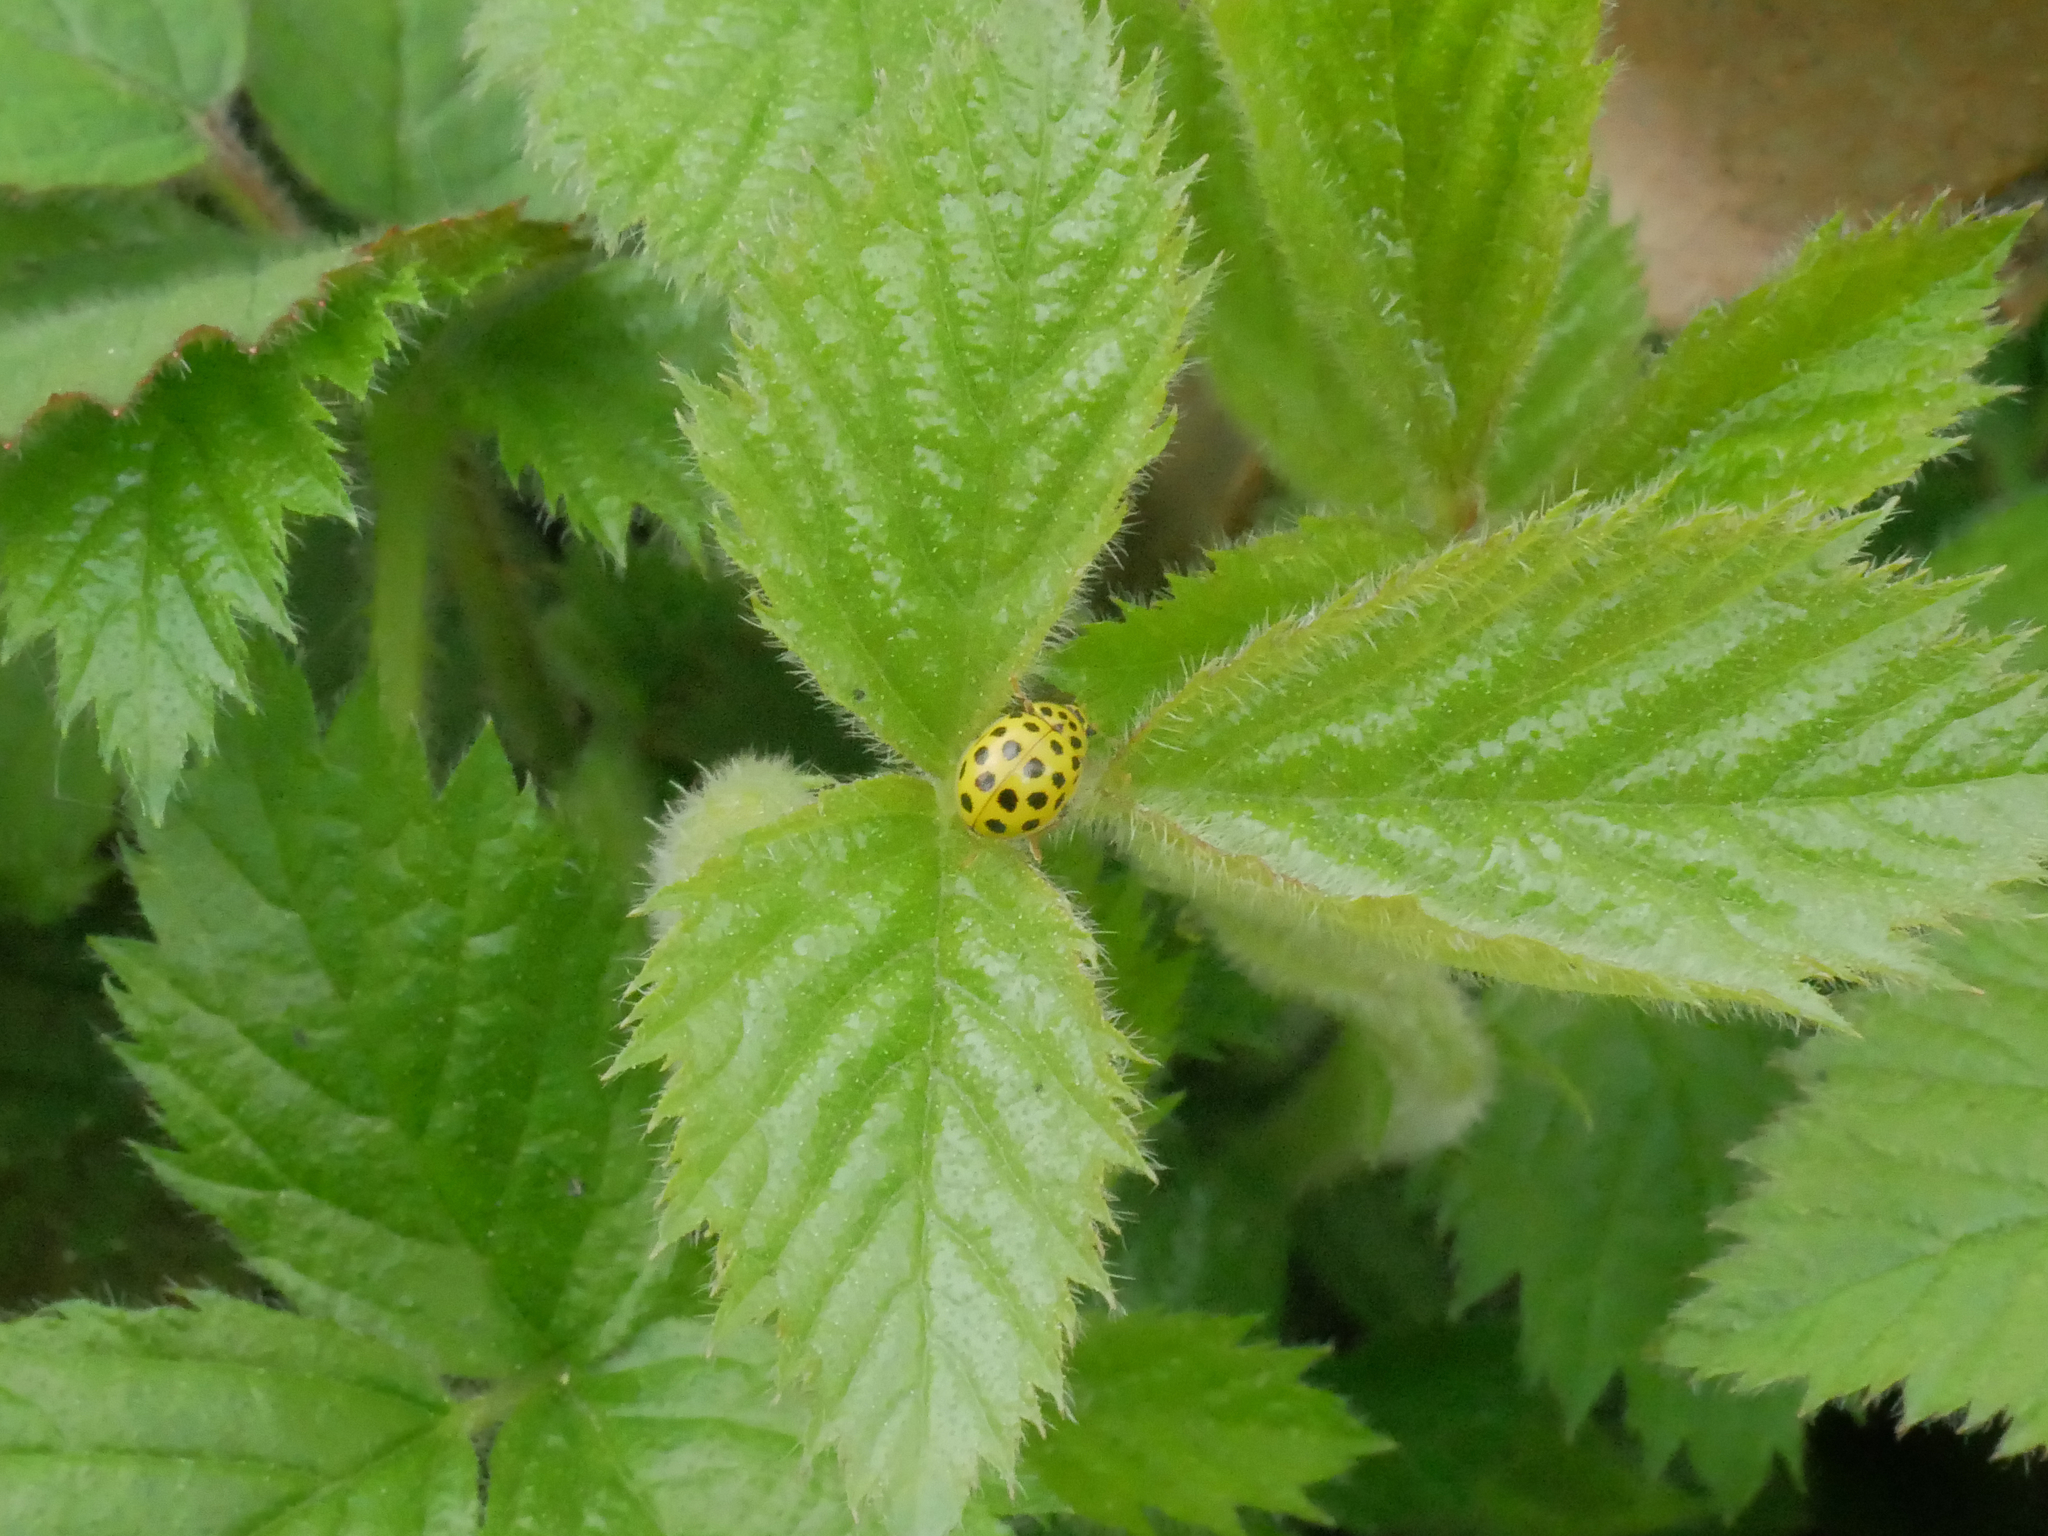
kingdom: Animalia
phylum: Arthropoda
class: Insecta
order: Coleoptera
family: Coccinellidae
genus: Psyllobora
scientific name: Psyllobora vigintiduopunctata
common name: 22-spot ladybird
